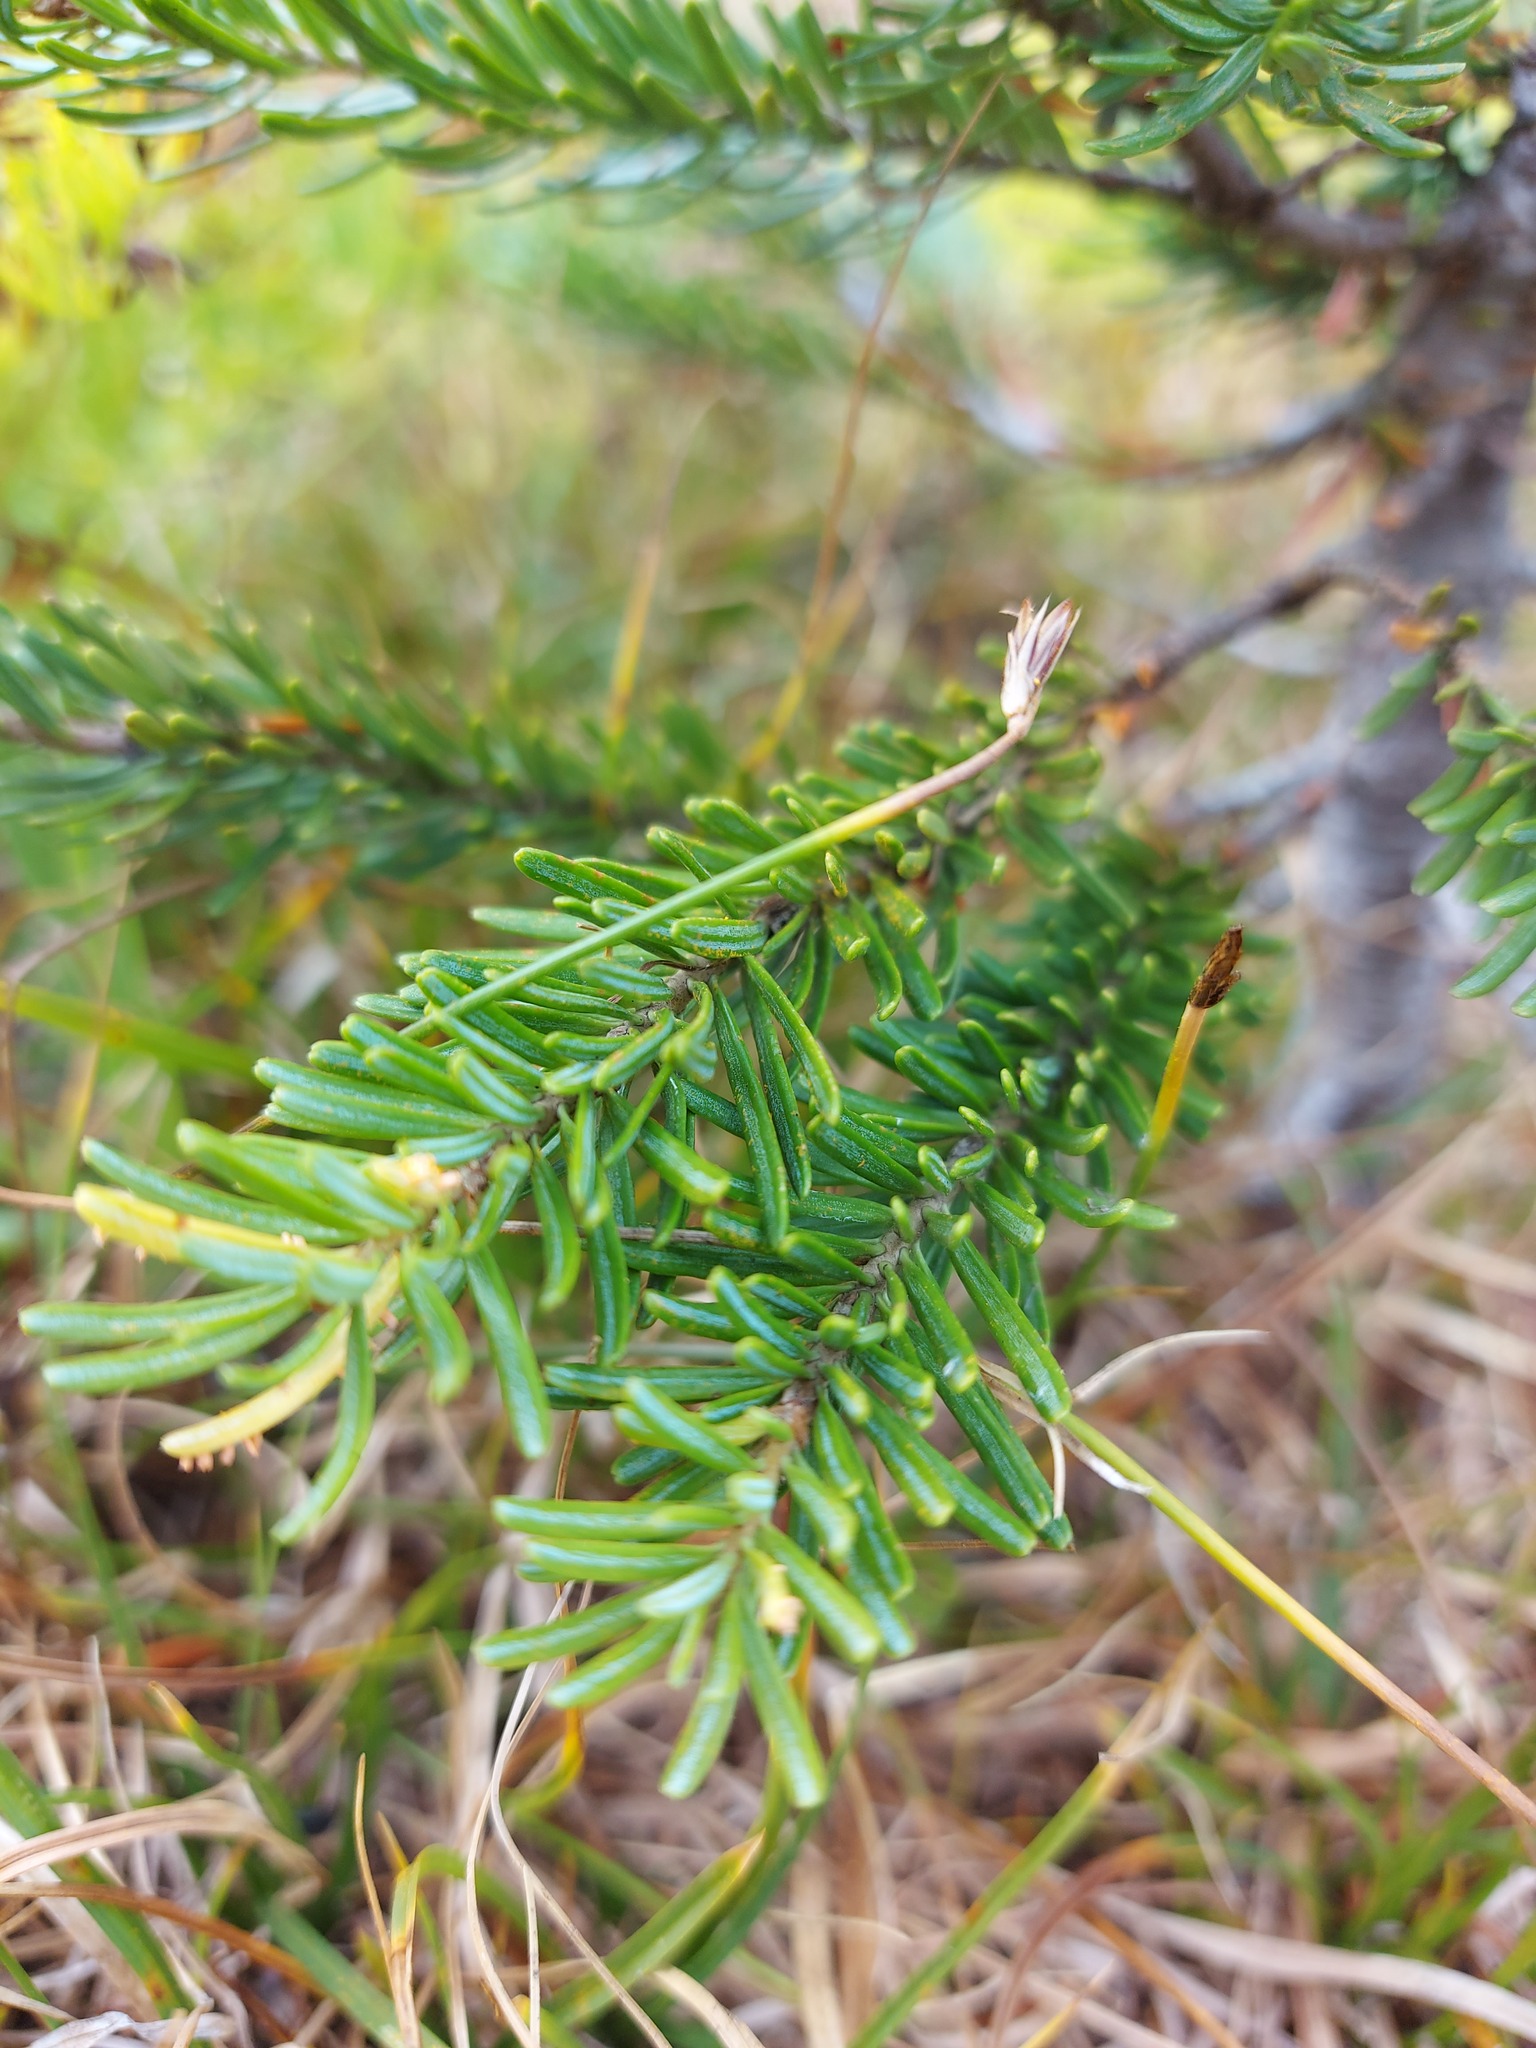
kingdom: Plantae
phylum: Tracheophyta
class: Pinopsida
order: Pinales
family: Pinaceae
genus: Abies
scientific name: Abies lasiocarpa
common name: Subalpine fir
